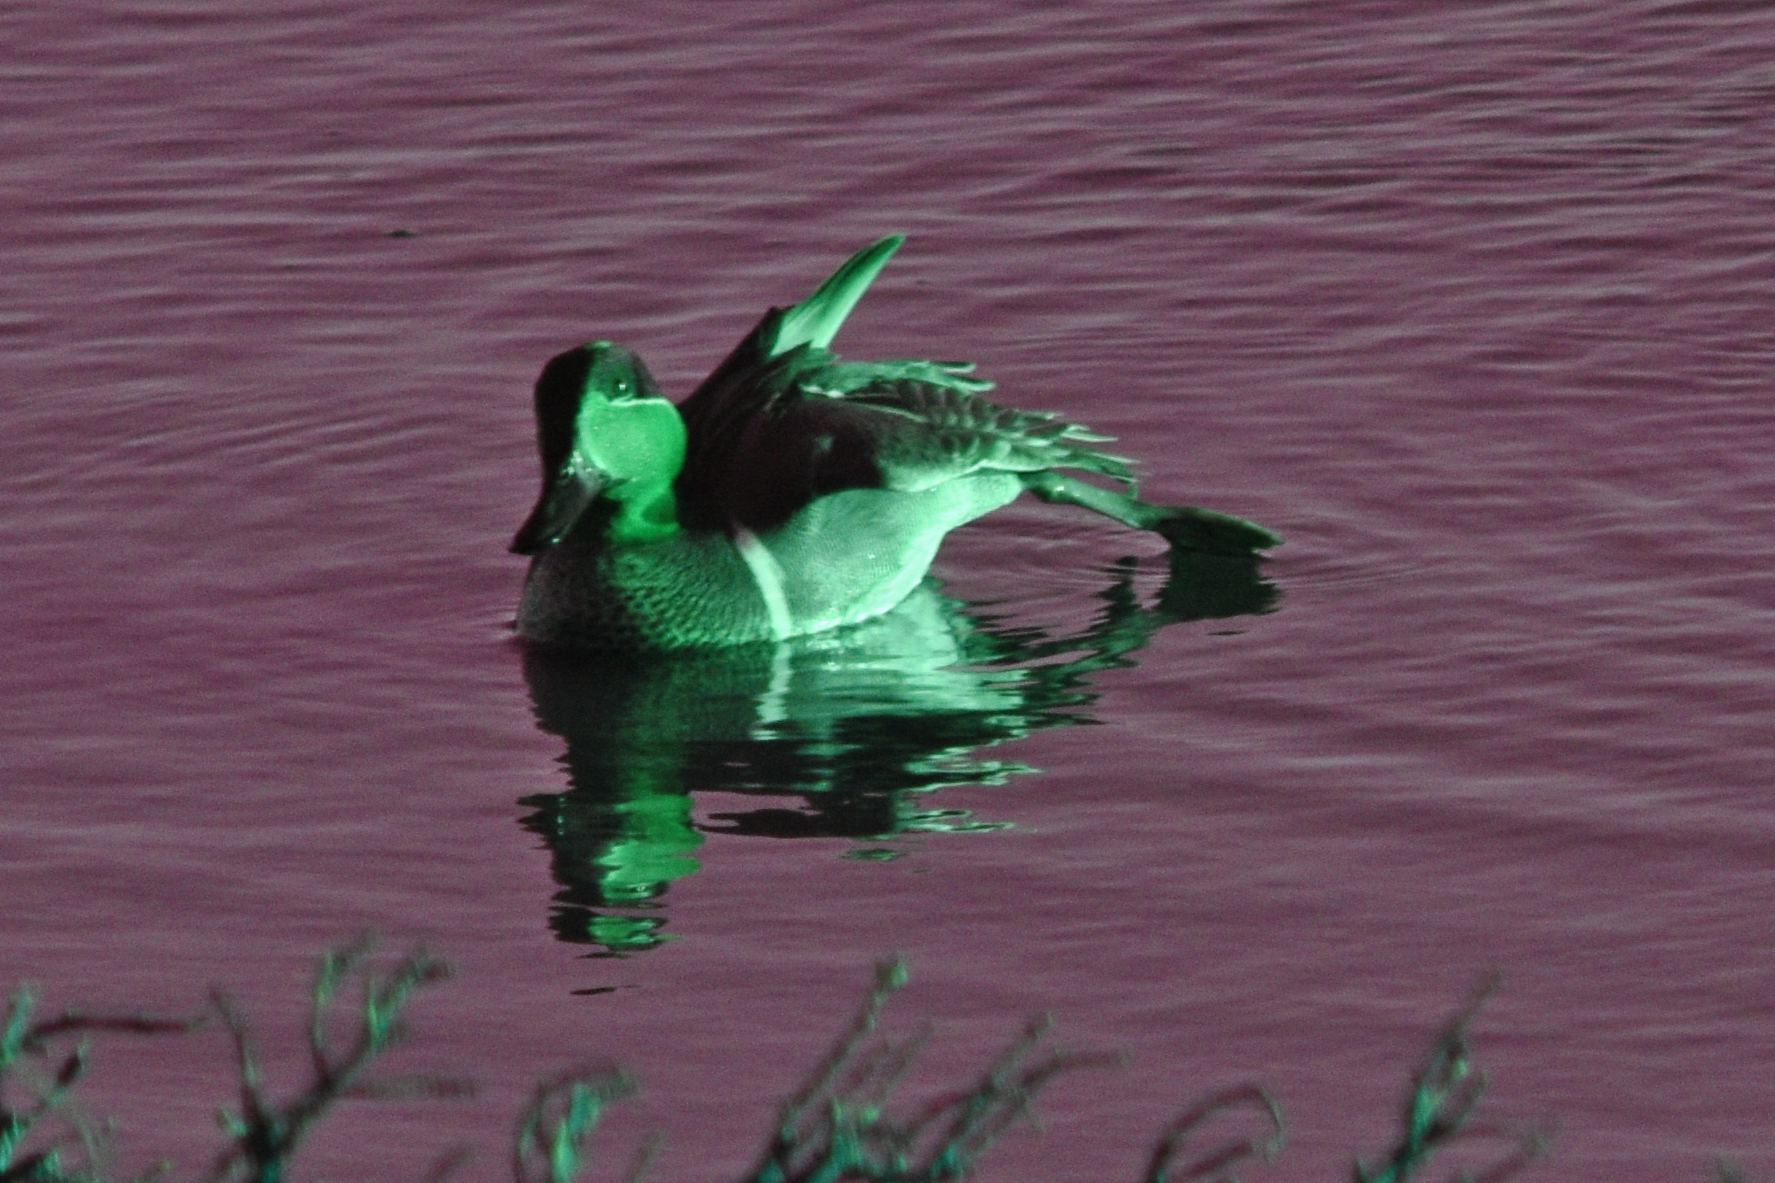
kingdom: Animalia
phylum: Chordata
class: Aves
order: Anseriformes
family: Anatidae
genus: Anas
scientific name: Anas crecca
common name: Eurasian teal
